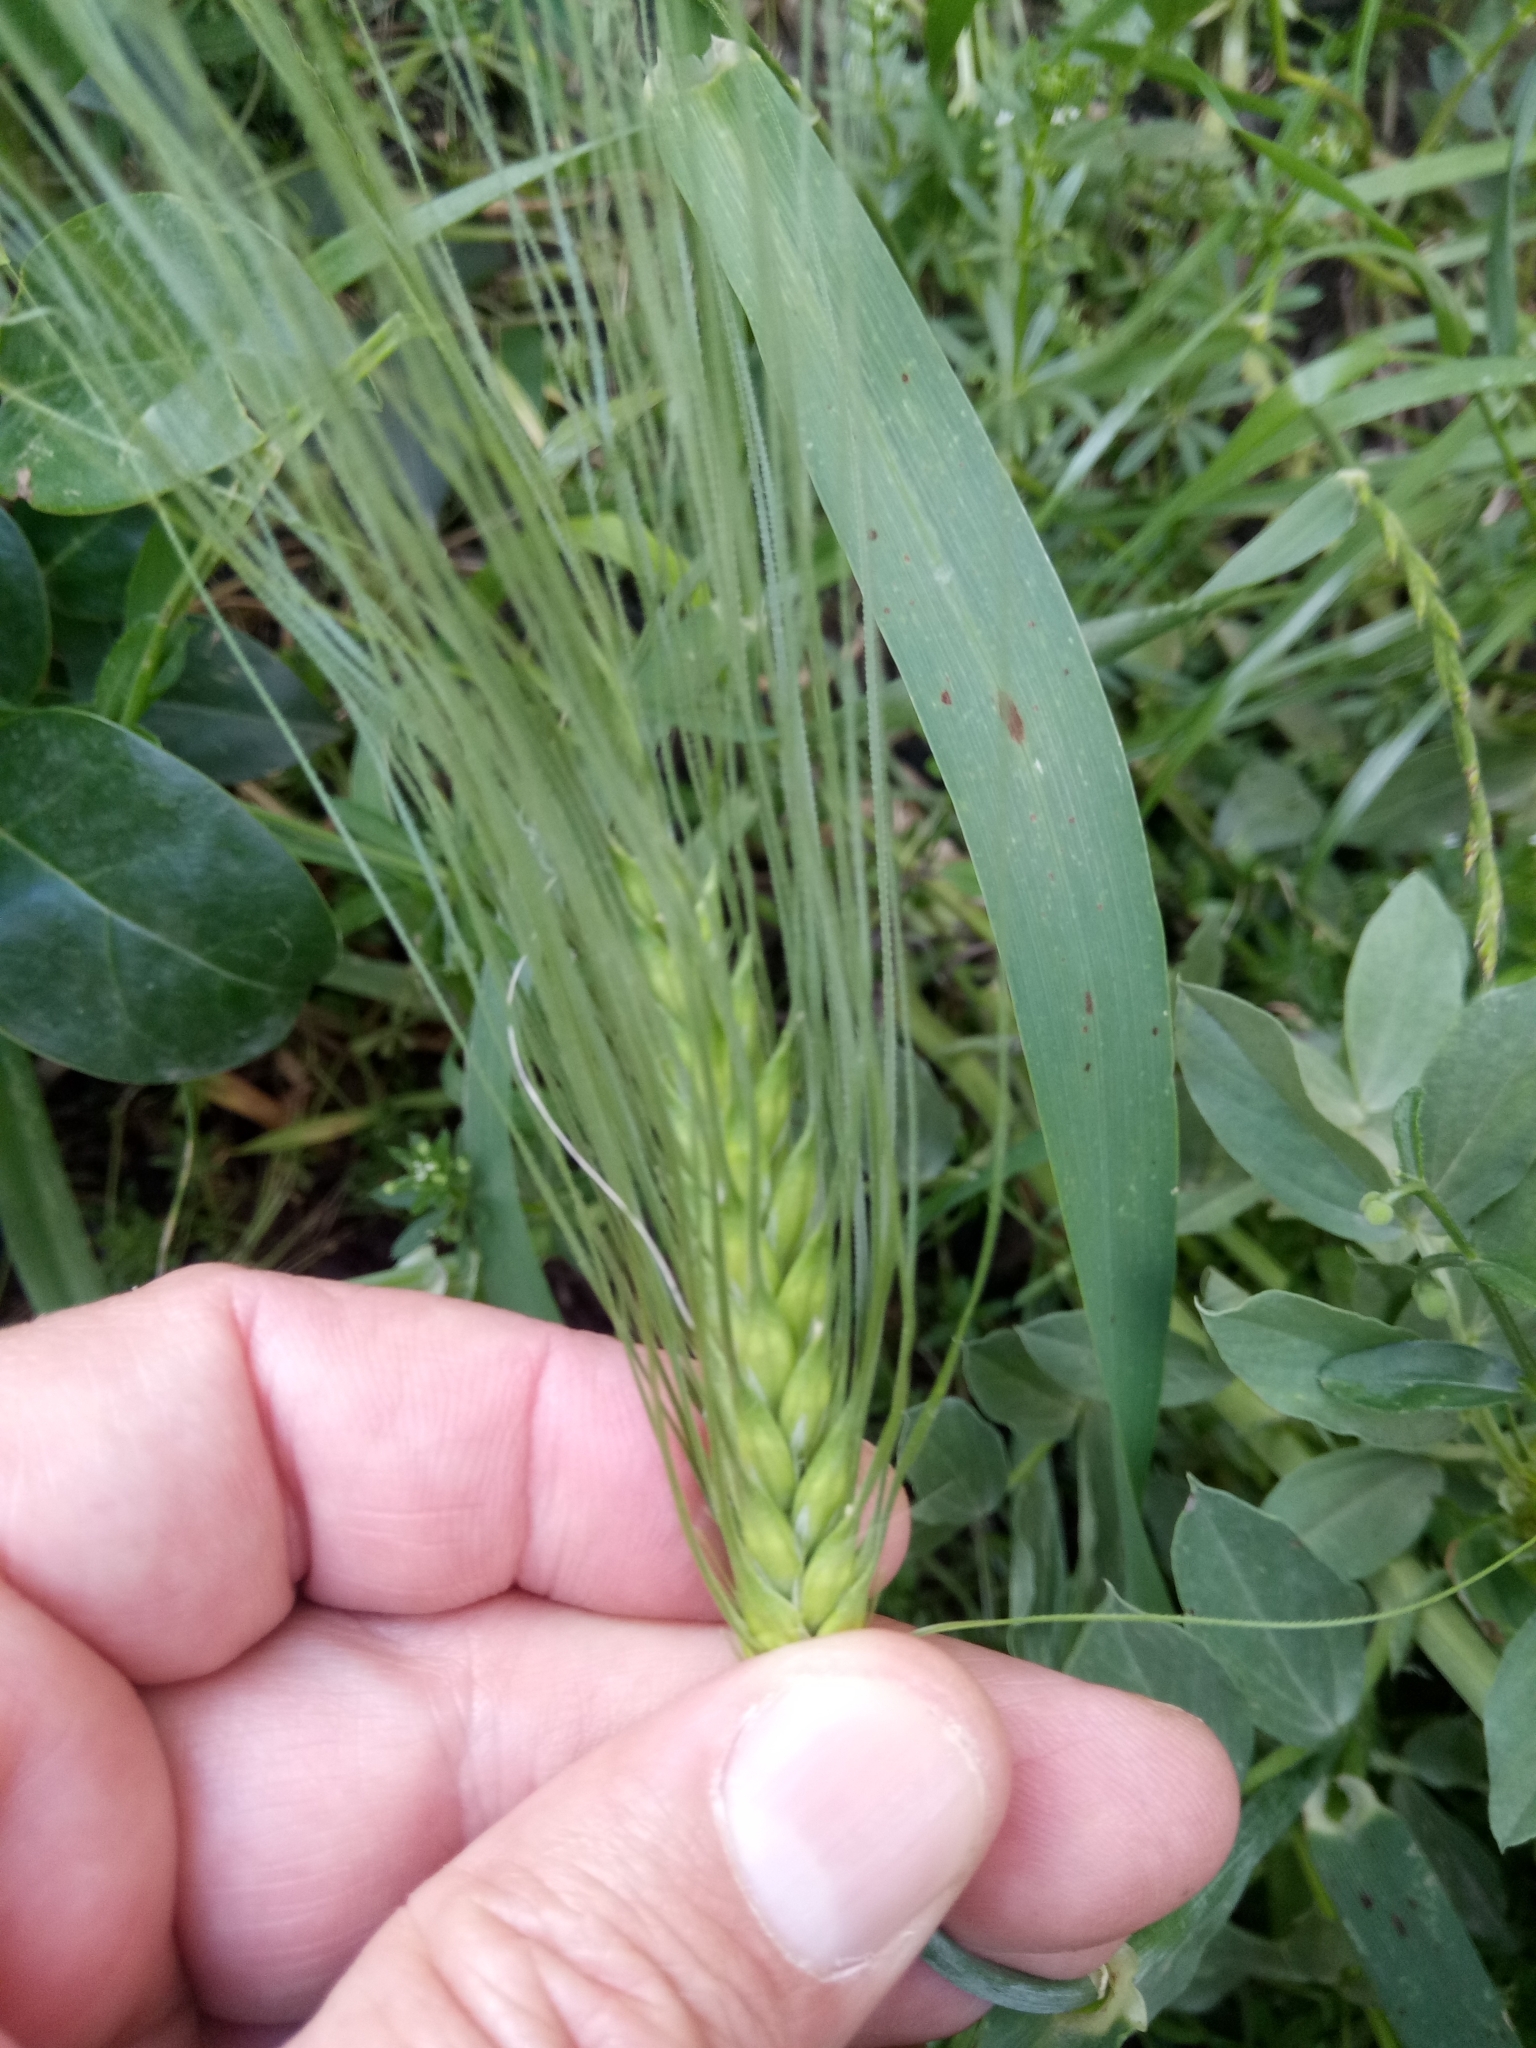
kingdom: Plantae
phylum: Tracheophyta
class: Liliopsida
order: Poales
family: Poaceae
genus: Hordeum
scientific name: Hordeum vulgare
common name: Common barley
